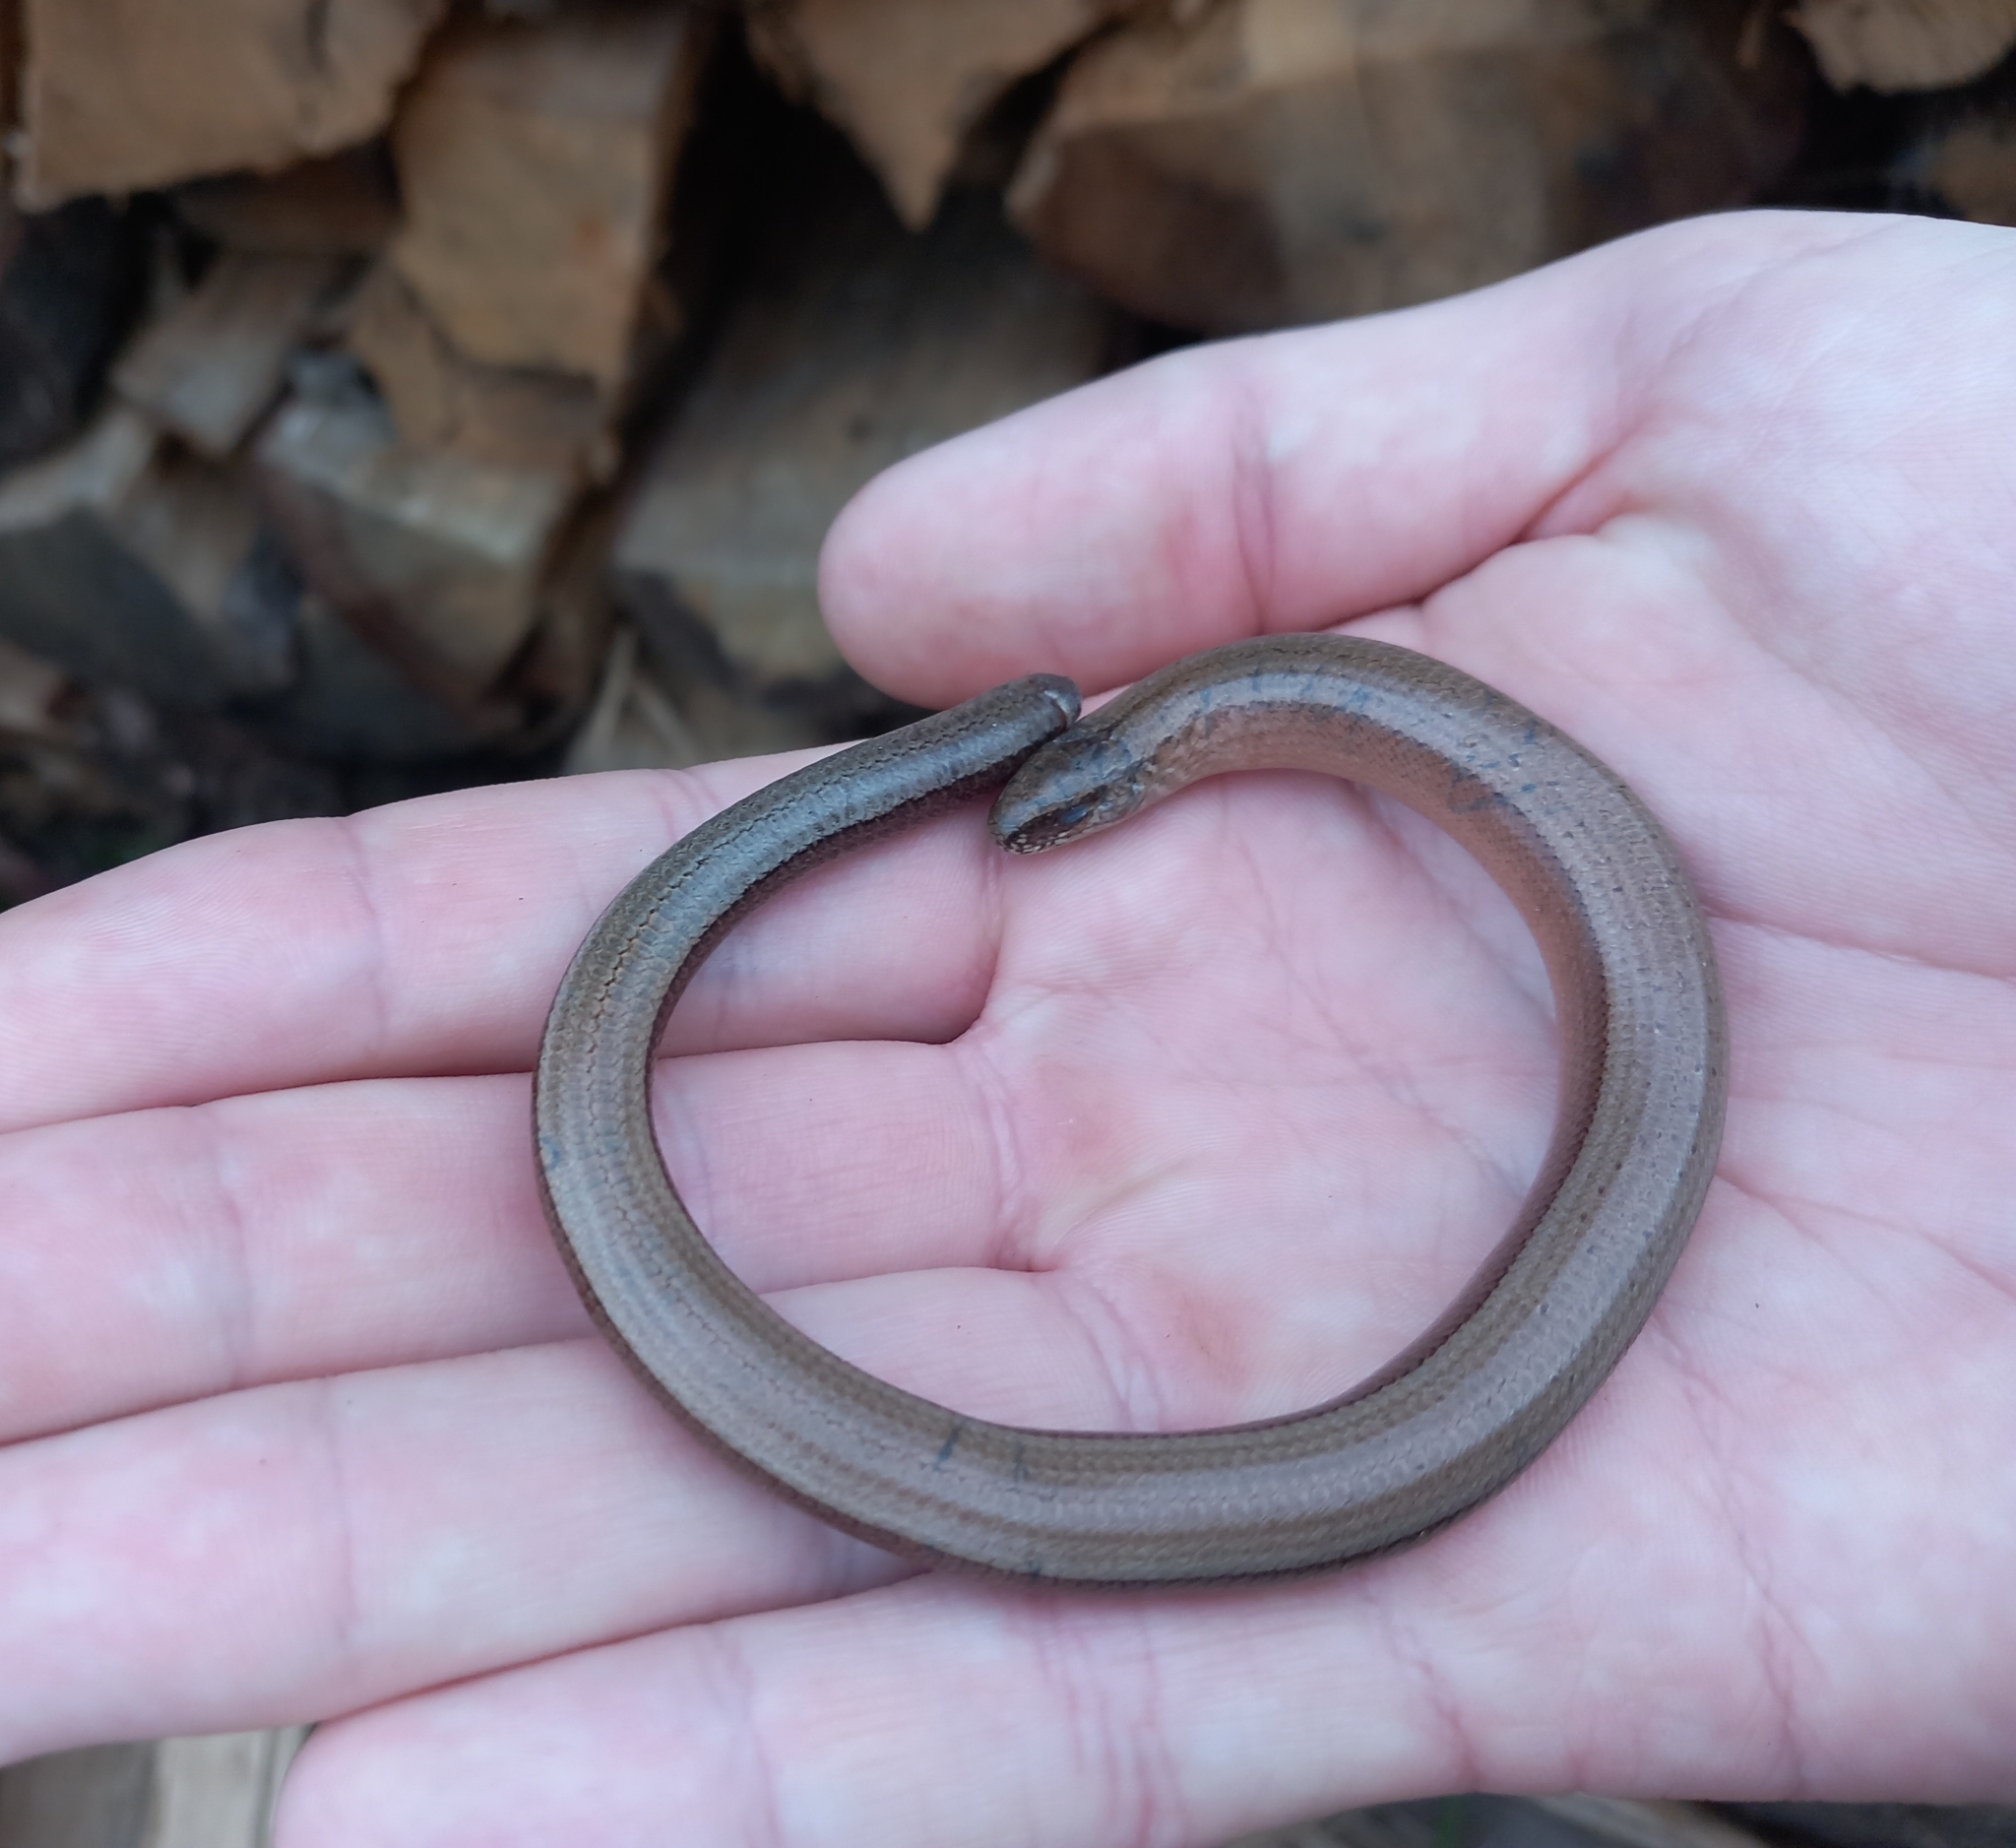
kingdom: Animalia
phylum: Chordata
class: Squamata
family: Anguidae
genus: Anguis
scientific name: Anguis fragilis
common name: Slow worm
